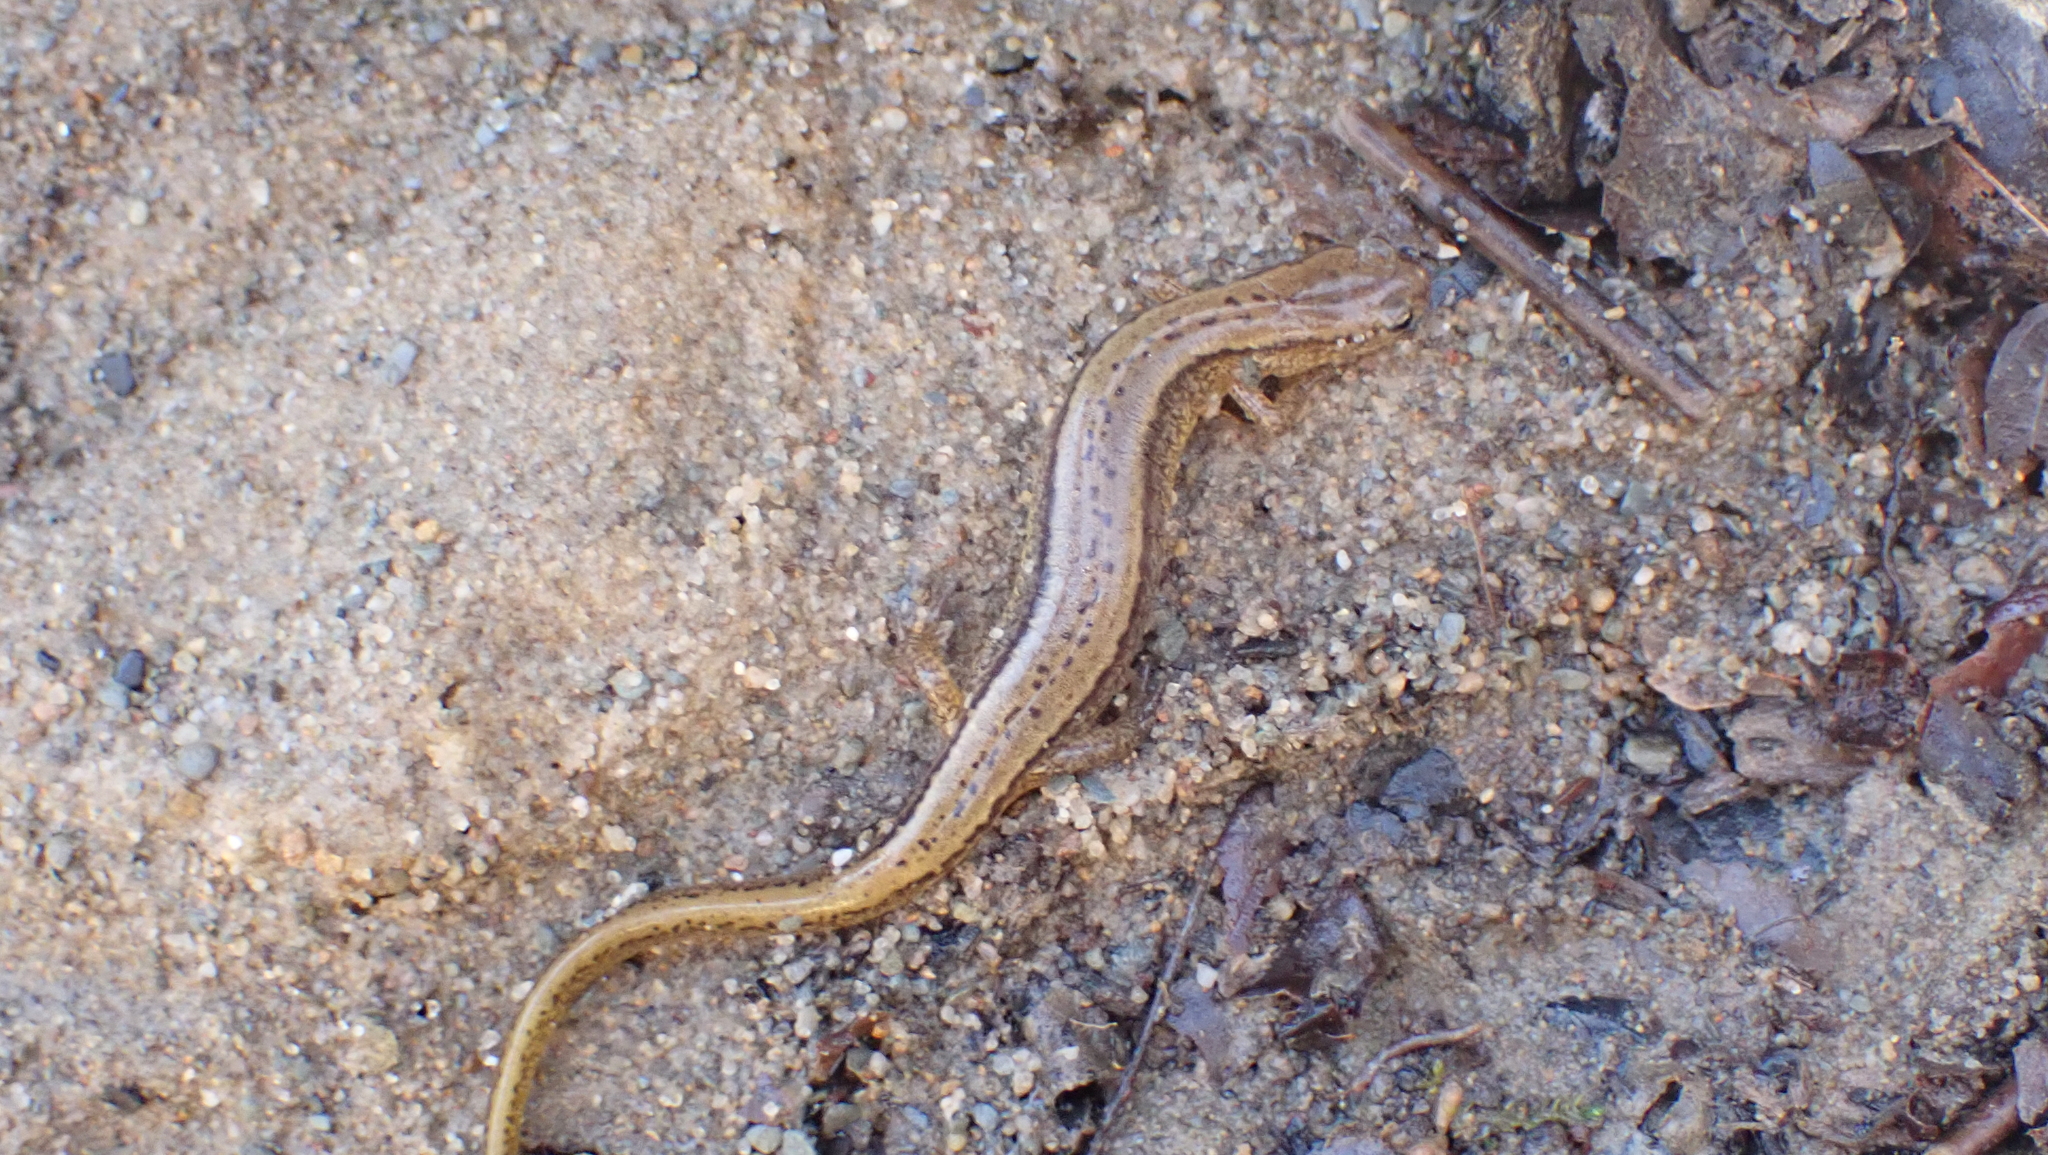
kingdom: Animalia
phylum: Chordata
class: Amphibia
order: Caudata
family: Plethodontidae
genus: Eurycea
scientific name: Eurycea cirrigera
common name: Southern two-lined salamander
